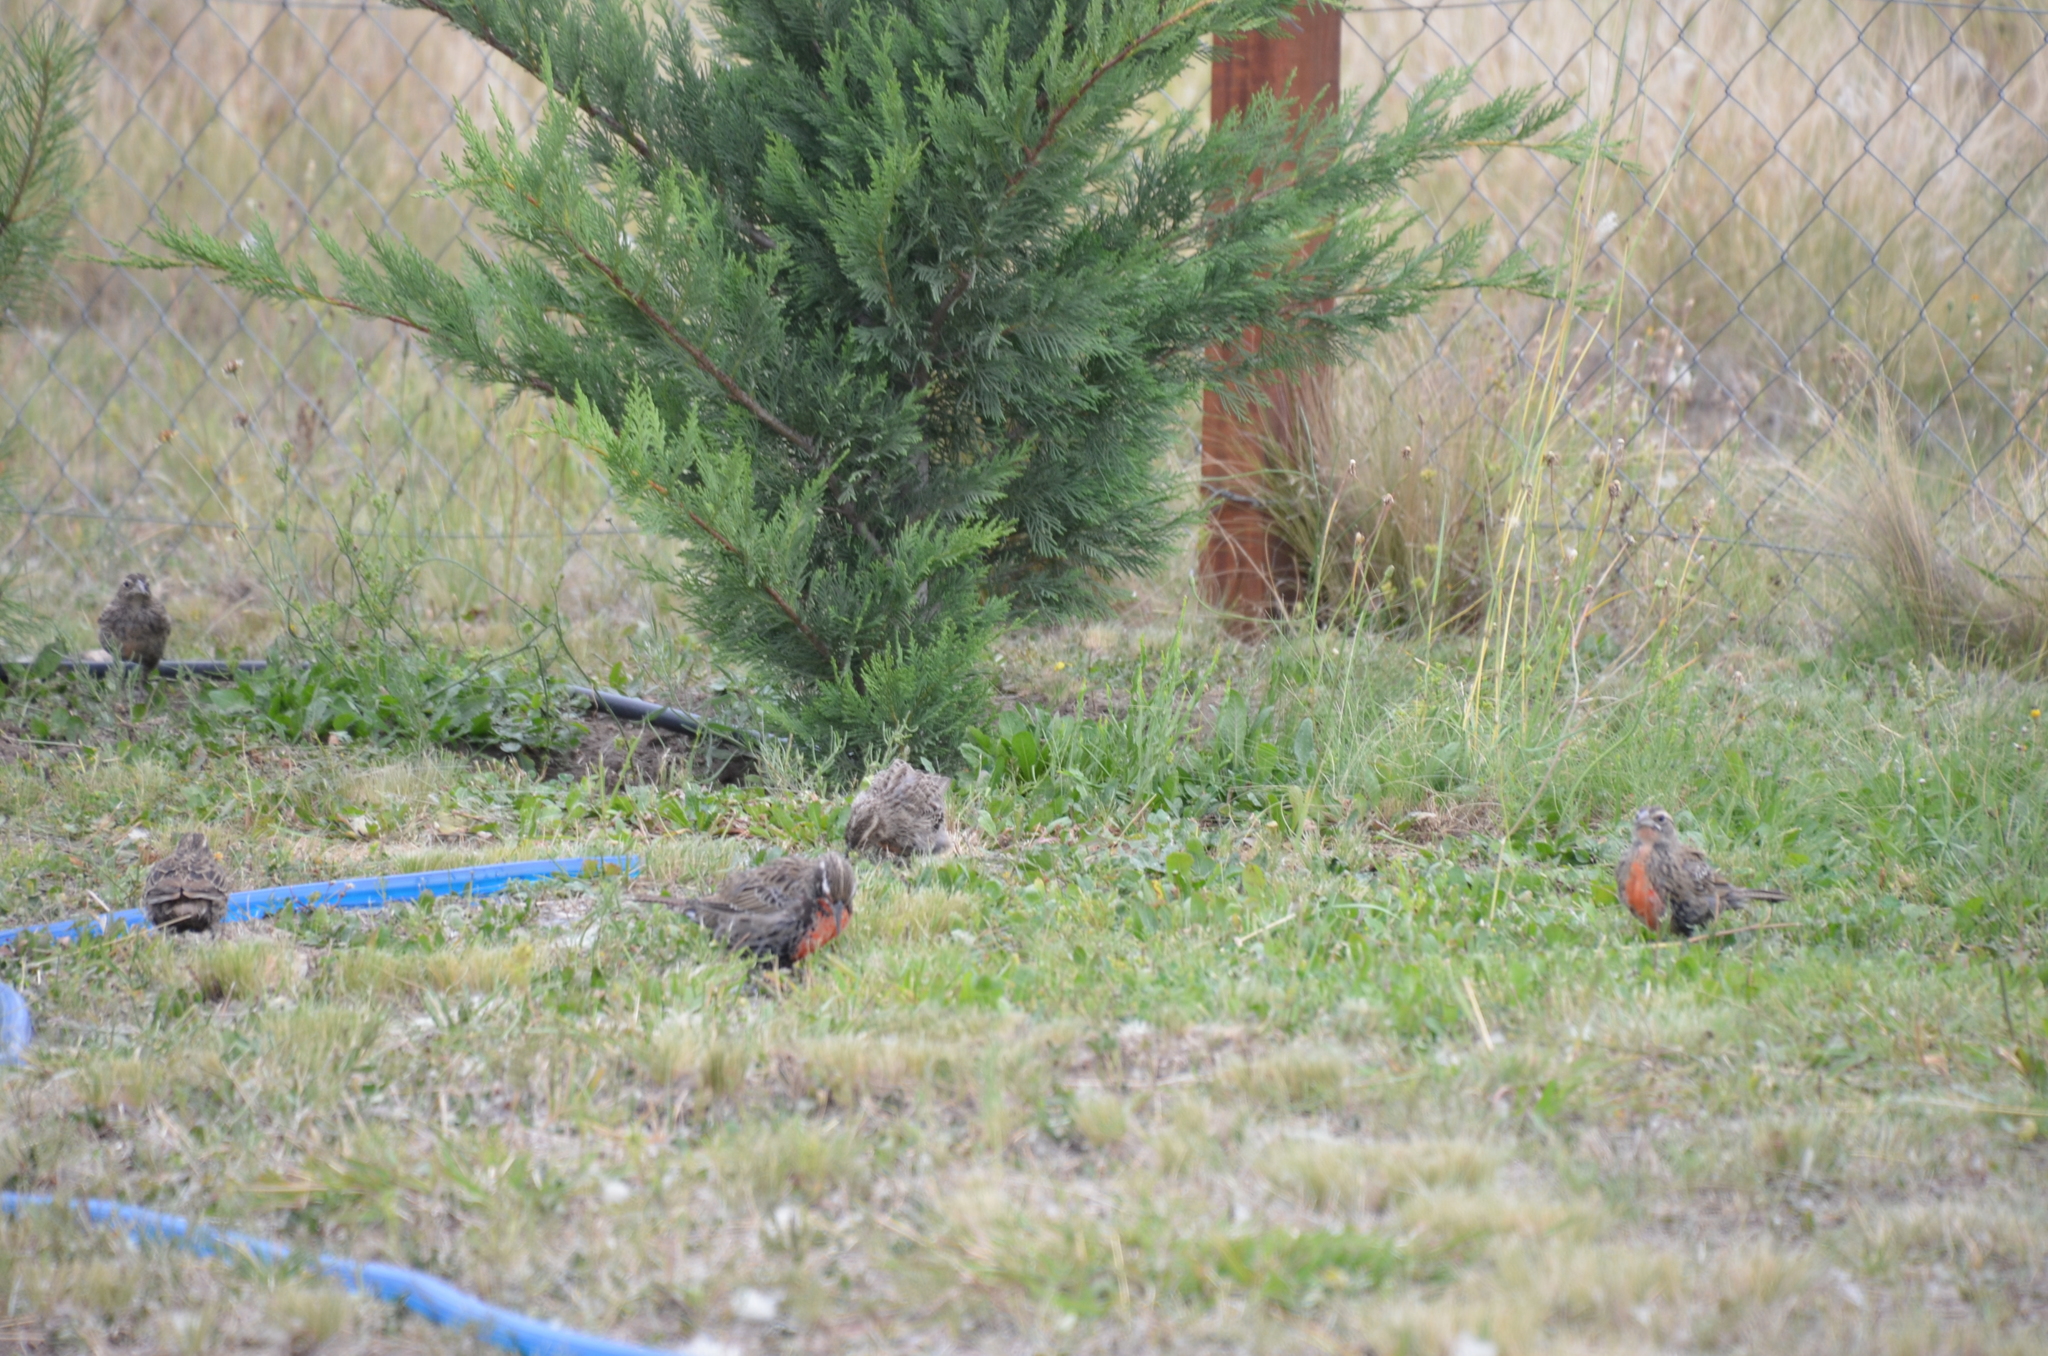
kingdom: Animalia
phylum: Chordata
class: Aves
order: Passeriformes
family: Icteridae
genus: Sturnella
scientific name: Sturnella loyca
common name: Long-tailed meadowlark
